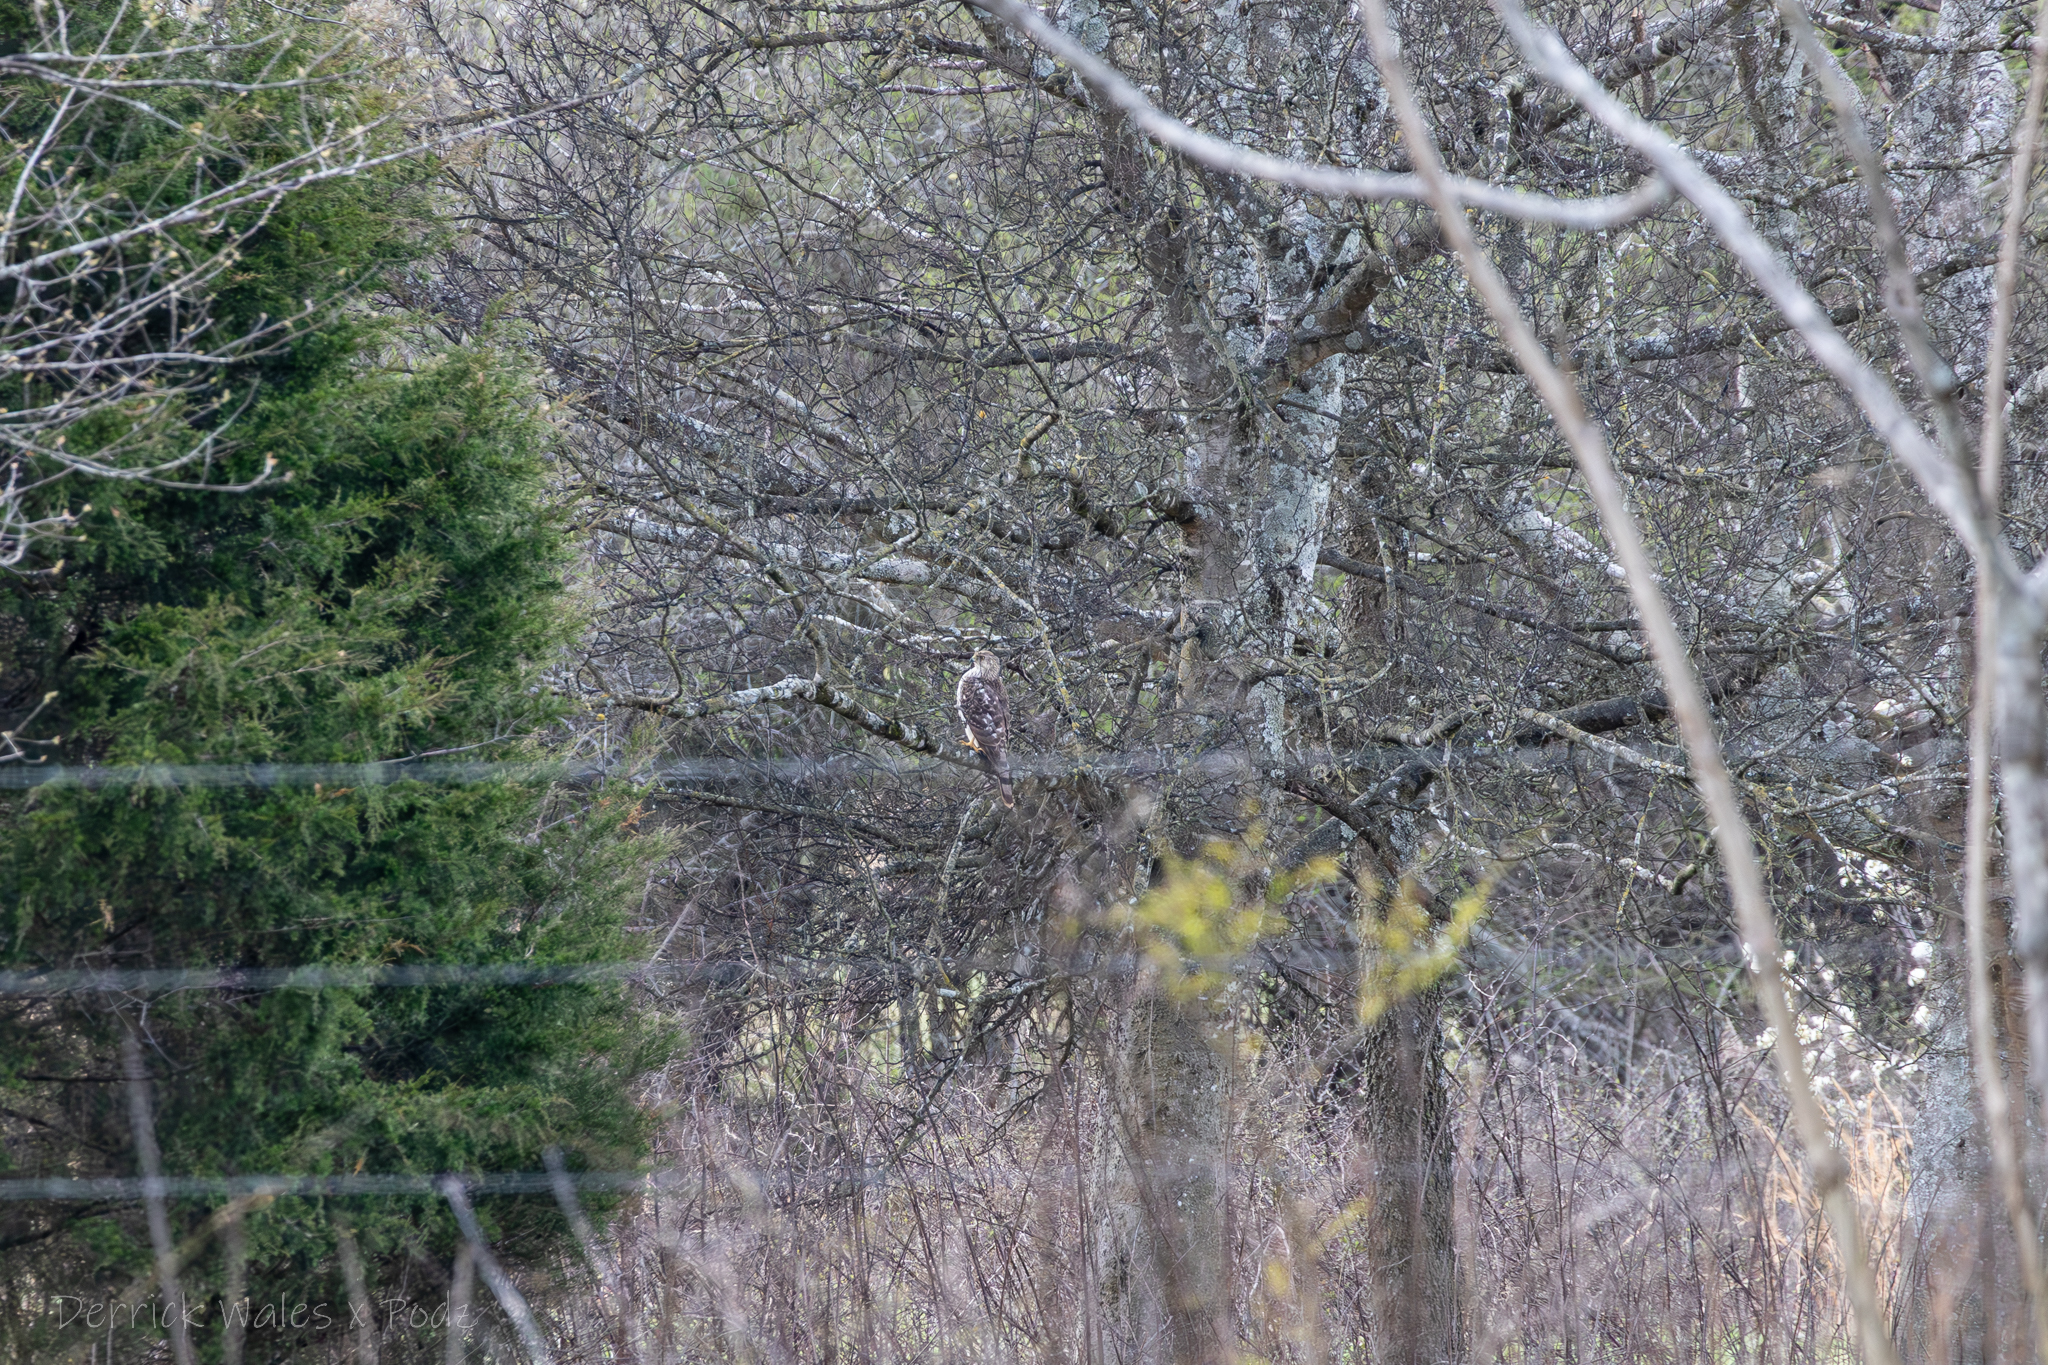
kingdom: Animalia
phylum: Chordata
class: Aves
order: Accipitriformes
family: Accipitridae
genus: Accipiter
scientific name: Accipiter cooperii
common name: Cooper's hawk
